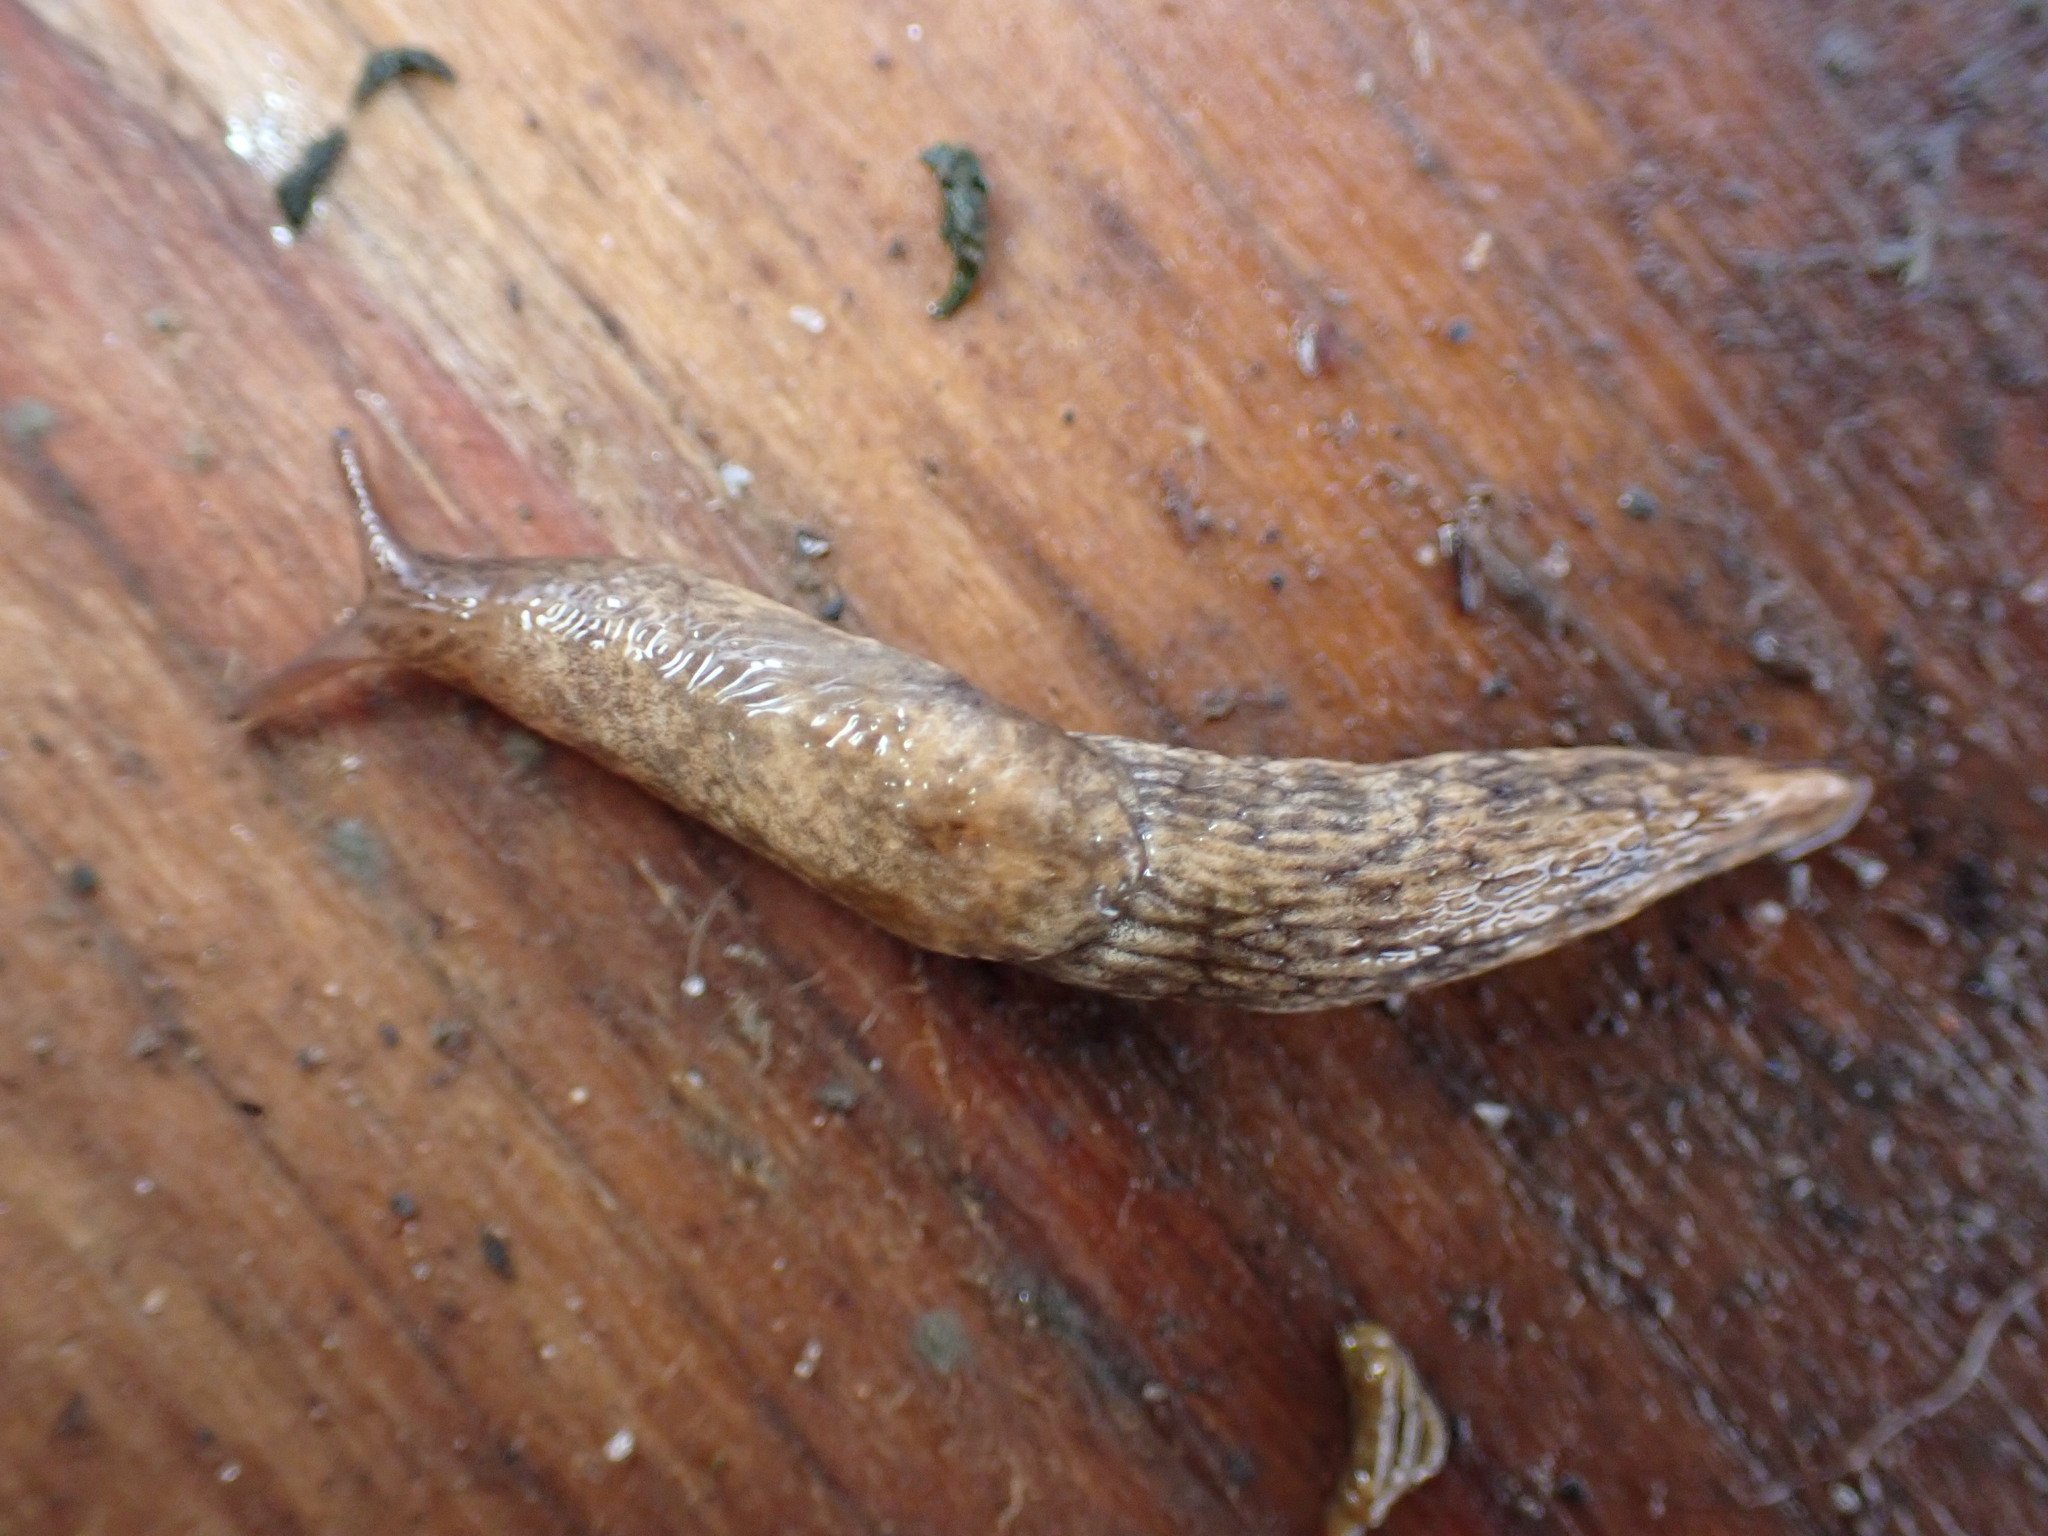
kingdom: Animalia
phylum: Mollusca
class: Gastropoda
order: Stylommatophora
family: Agriolimacidae
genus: Deroceras
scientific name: Deroceras reticulatum
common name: Gray field slug
